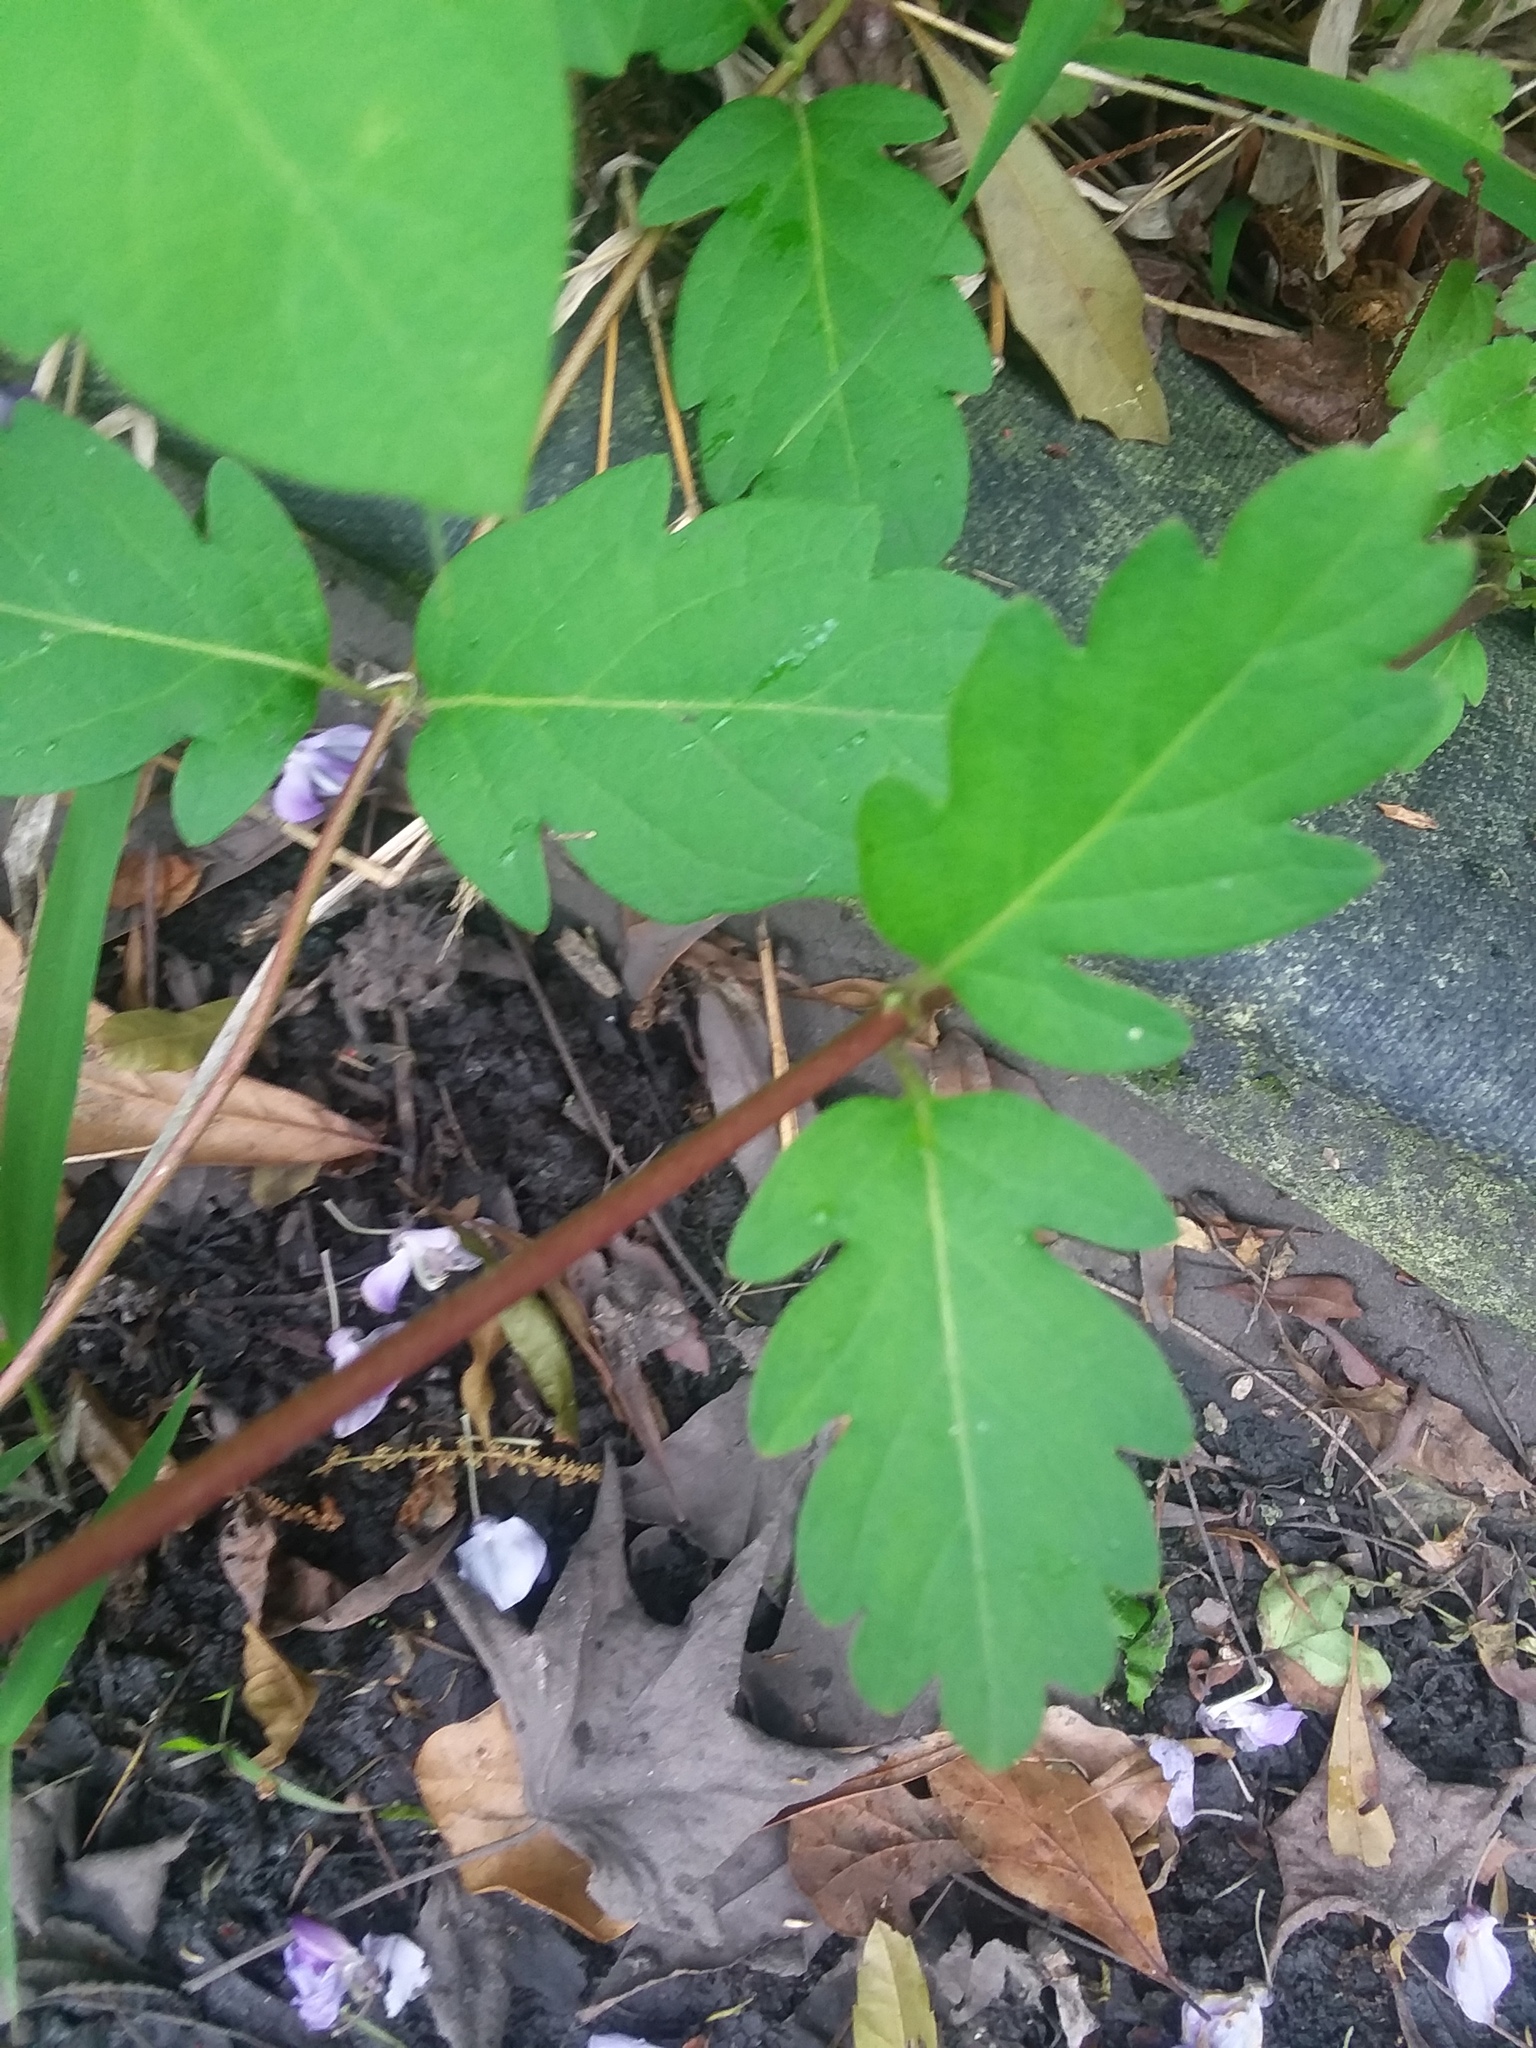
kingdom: Plantae
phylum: Tracheophyta
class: Magnoliopsida
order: Dipsacales
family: Caprifoliaceae
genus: Lonicera
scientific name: Lonicera japonica
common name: Japanese honeysuckle
